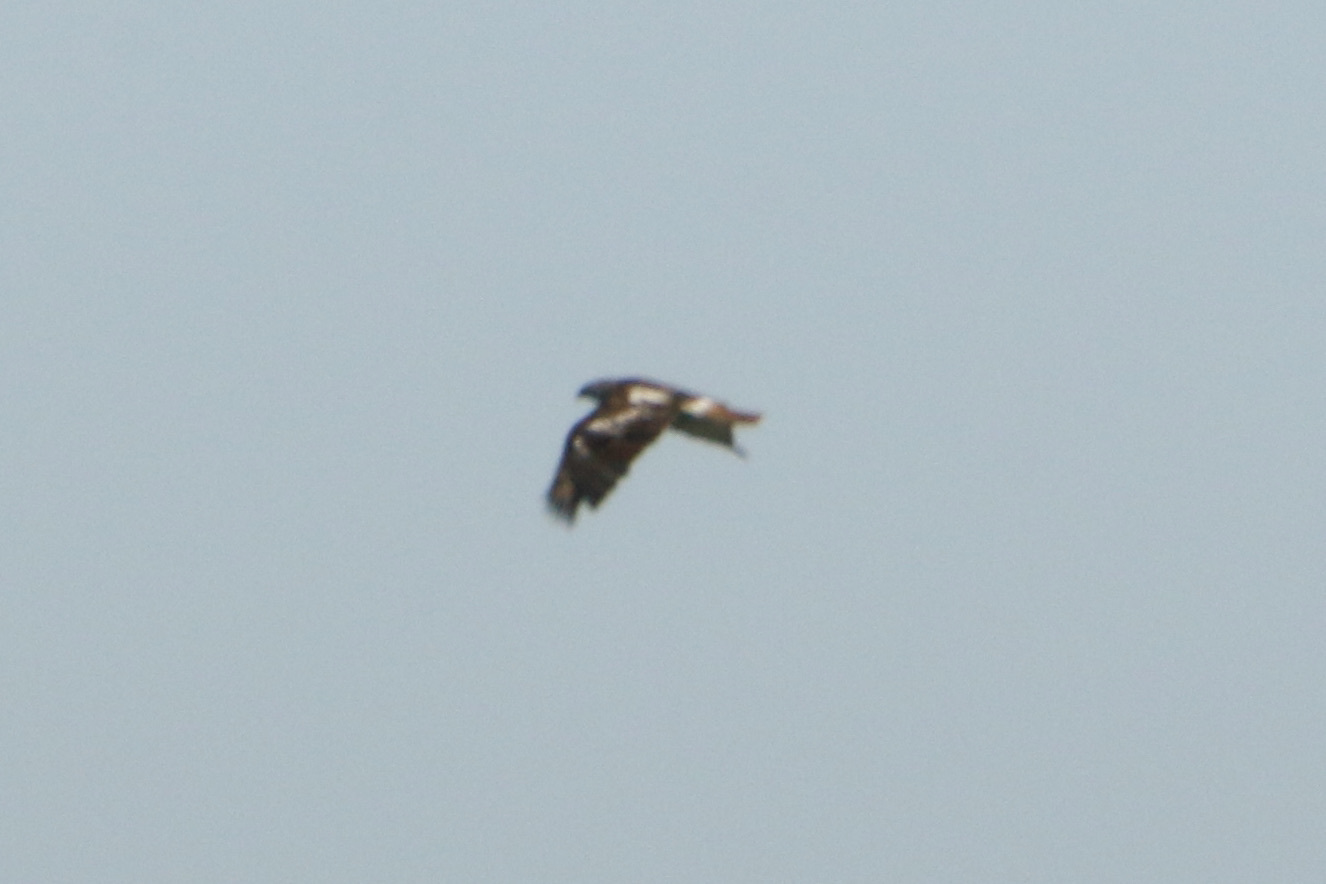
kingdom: Animalia
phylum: Chordata
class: Aves
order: Accipitriformes
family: Accipitridae
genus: Buteo
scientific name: Buteo jamaicensis
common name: Red-tailed hawk
